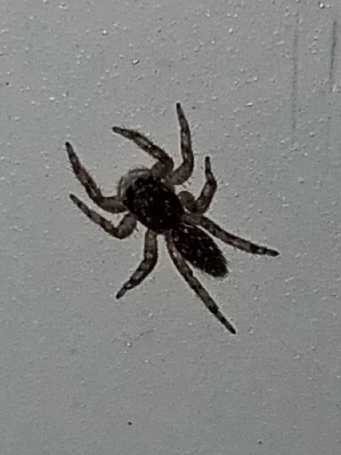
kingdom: Animalia
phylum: Arthropoda
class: Arachnida
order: Araneae
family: Salticidae
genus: Platycryptus
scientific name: Platycryptus undatus
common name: Tan jumping spider
